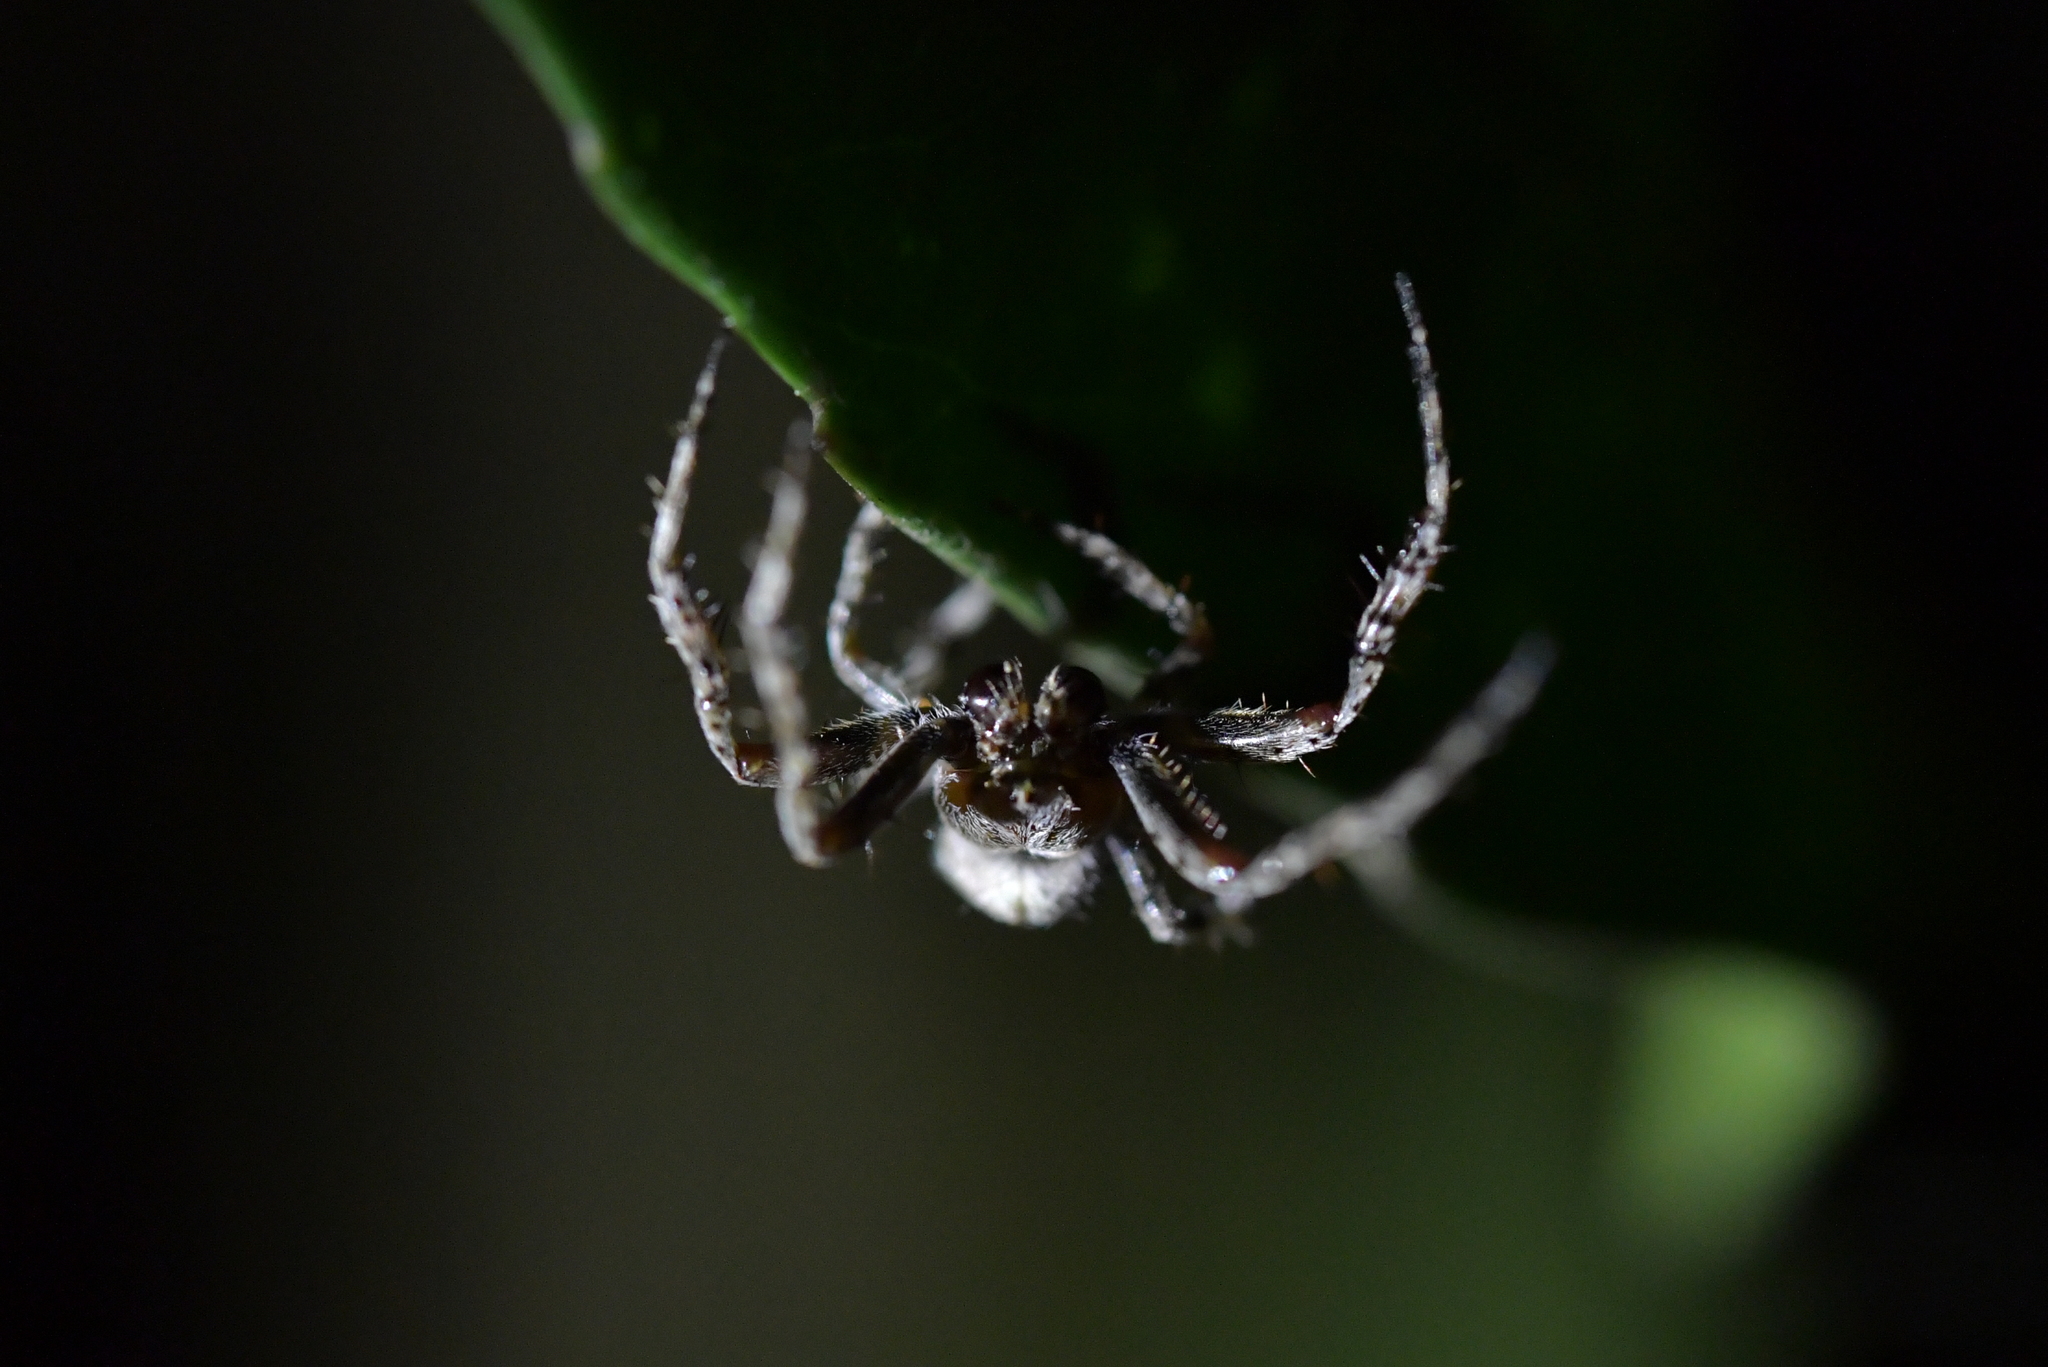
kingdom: Animalia
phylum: Arthropoda
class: Arachnida
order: Araneae
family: Araneidae
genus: Eriophora
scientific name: Eriophora pustulosa
